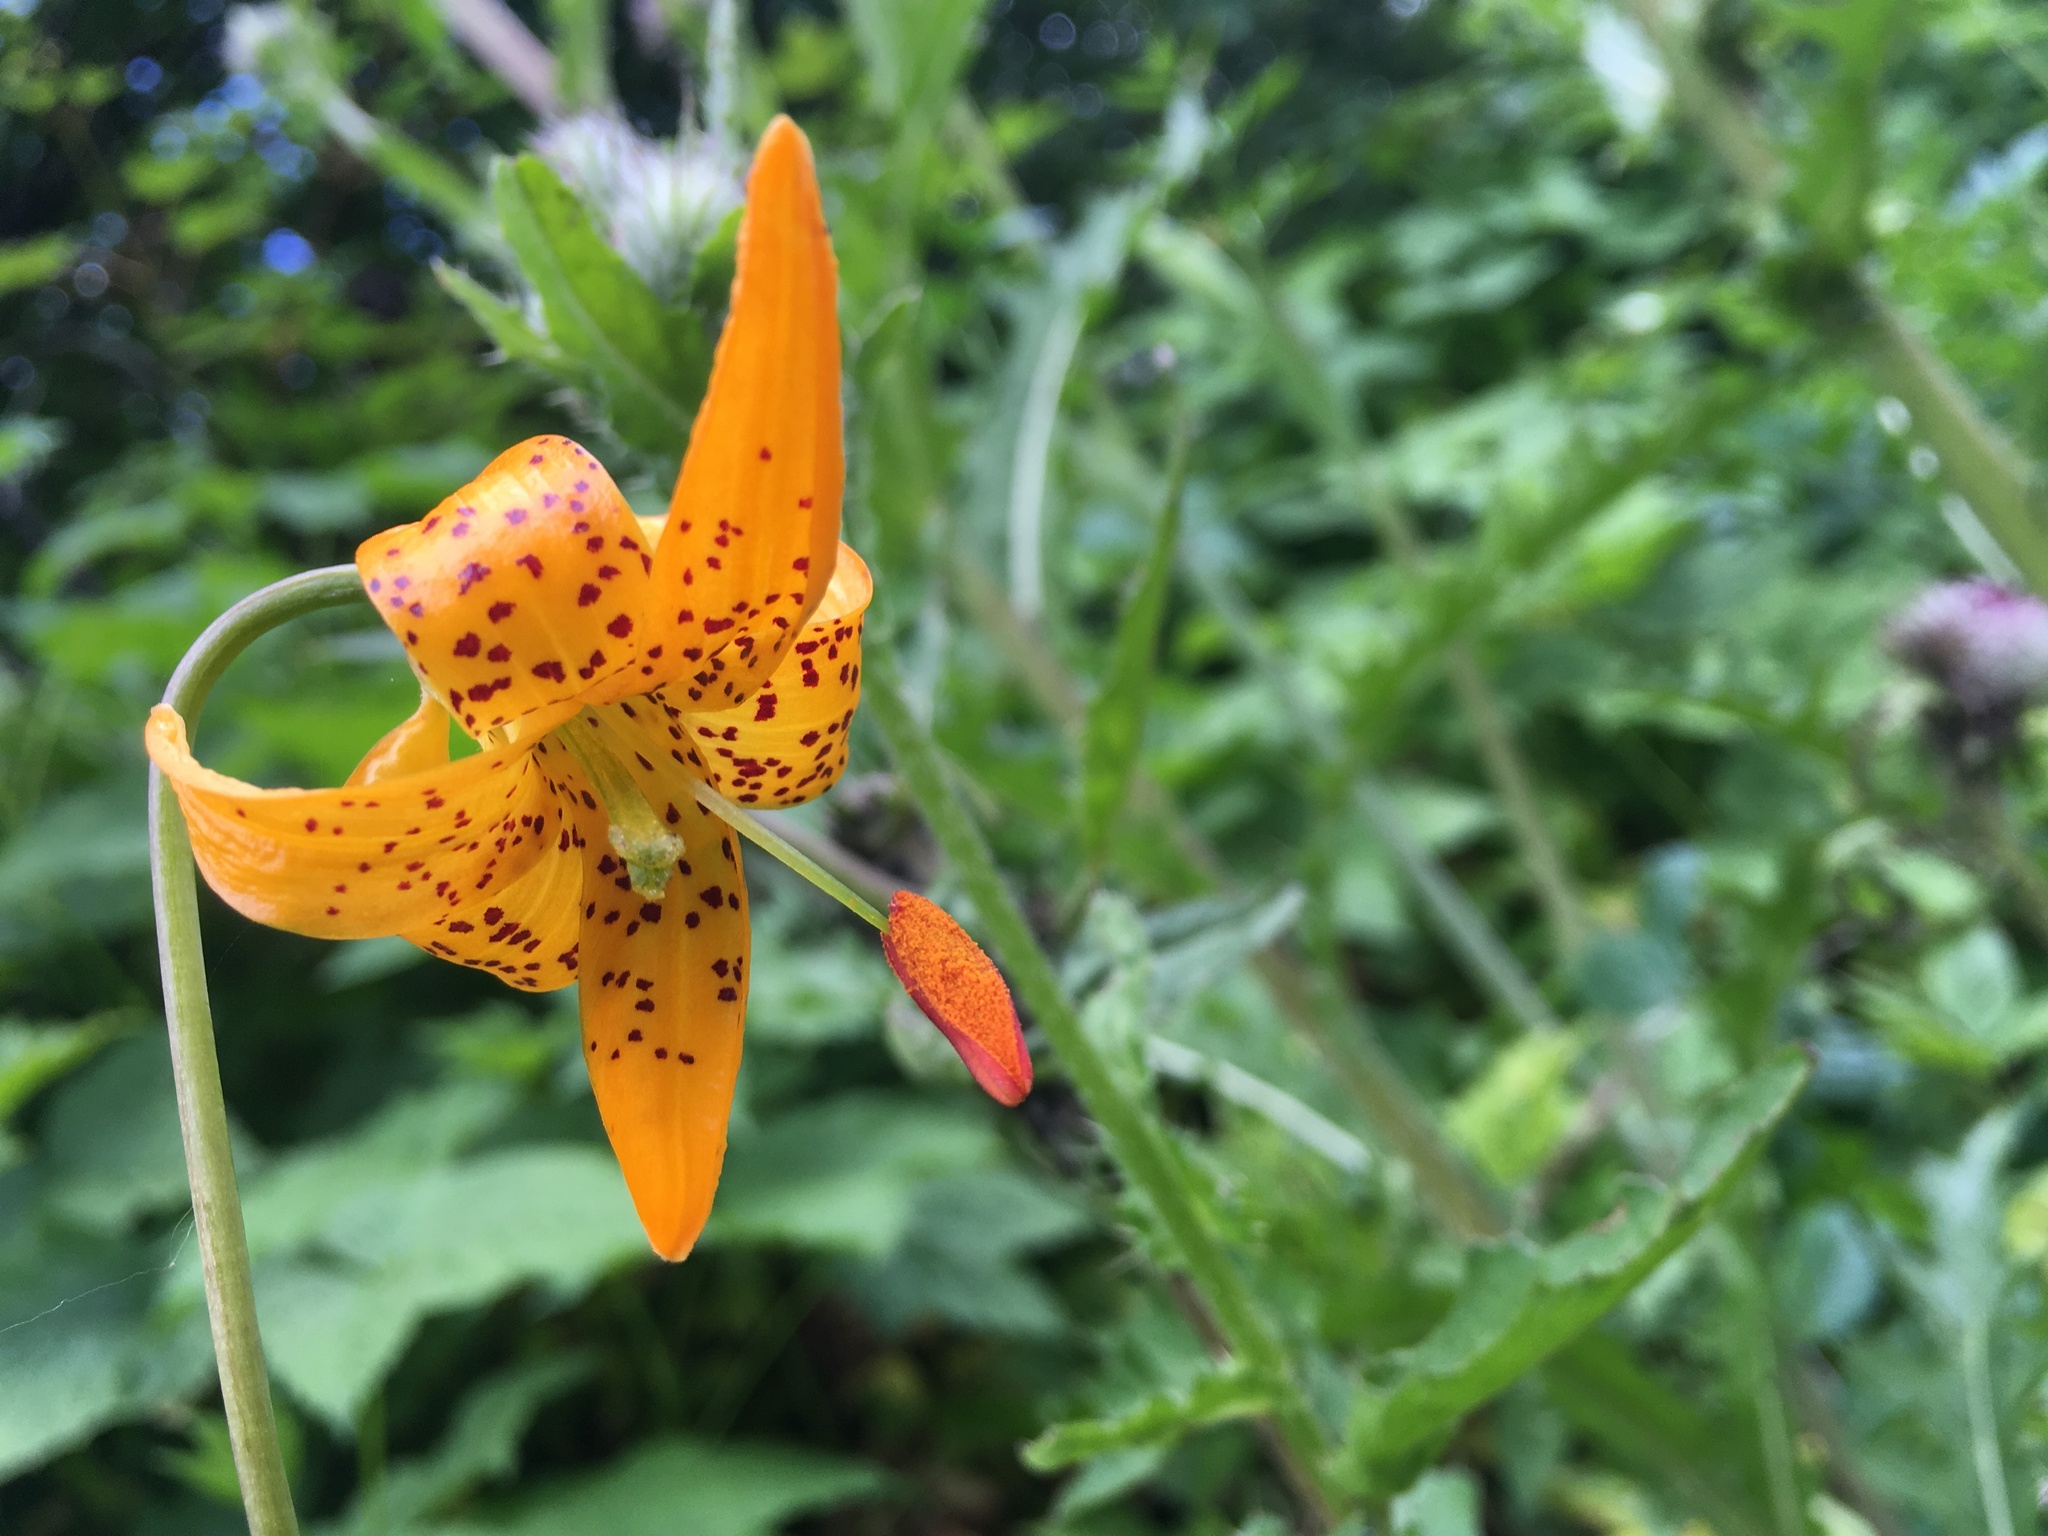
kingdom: Plantae
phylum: Tracheophyta
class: Liliopsida
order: Liliales
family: Liliaceae
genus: Lilium
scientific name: Lilium columbianum
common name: Columbia lily
